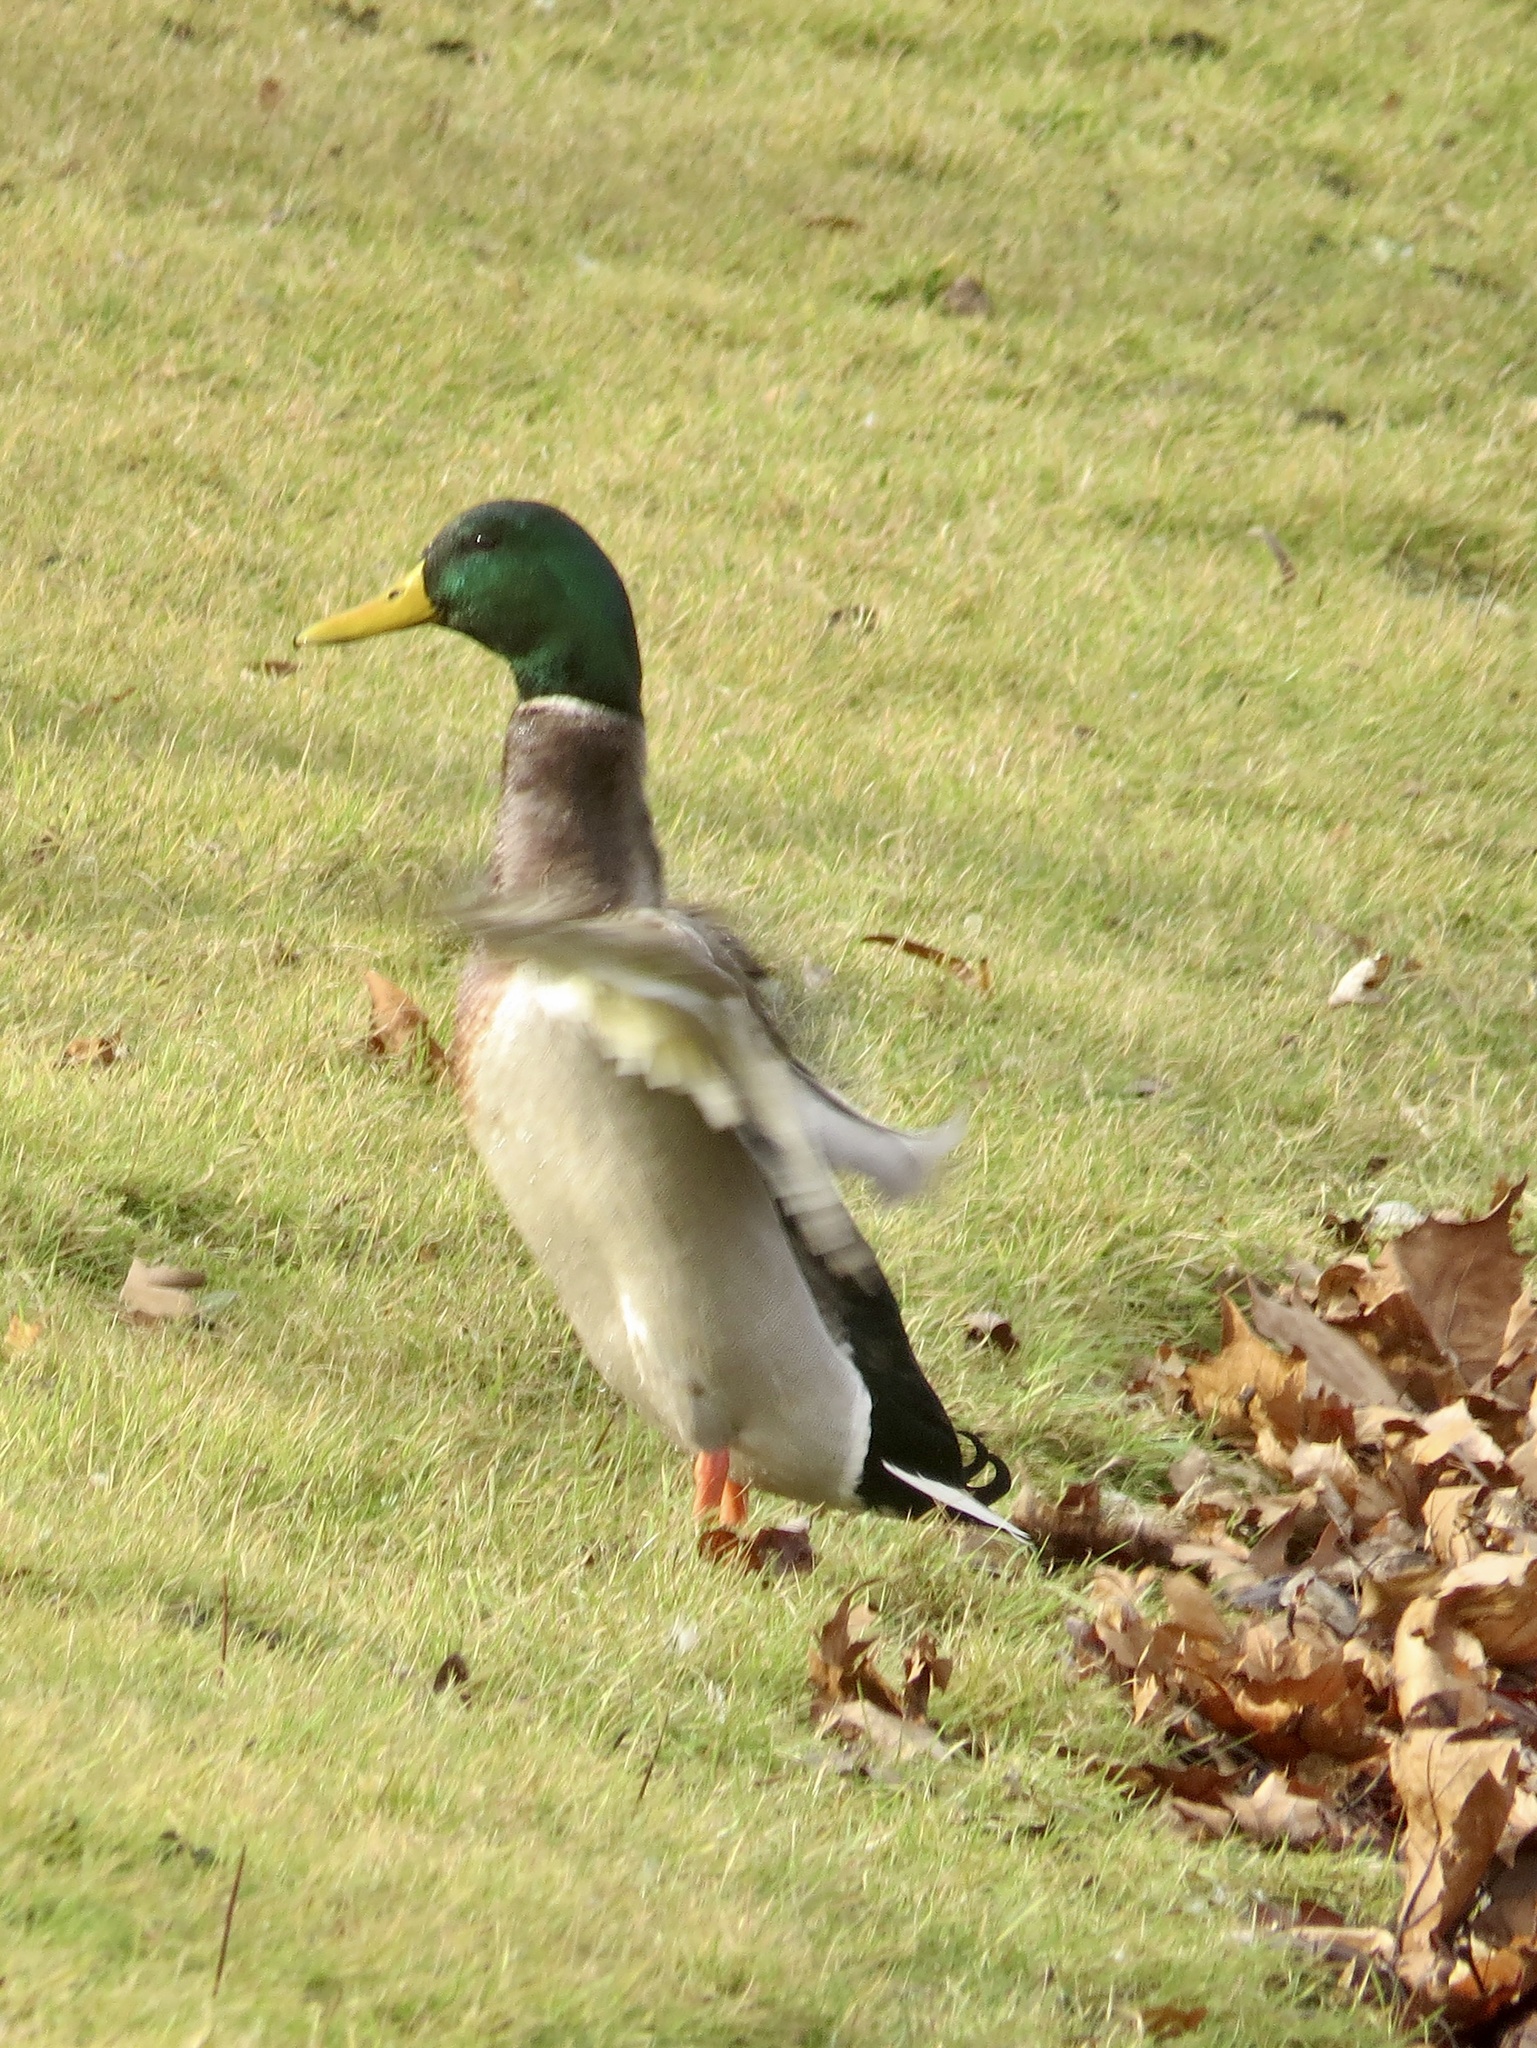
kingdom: Animalia
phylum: Chordata
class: Aves
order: Anseriformes
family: Anatidae
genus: Anas
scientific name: Anas platyrhynchos
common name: Mallard
